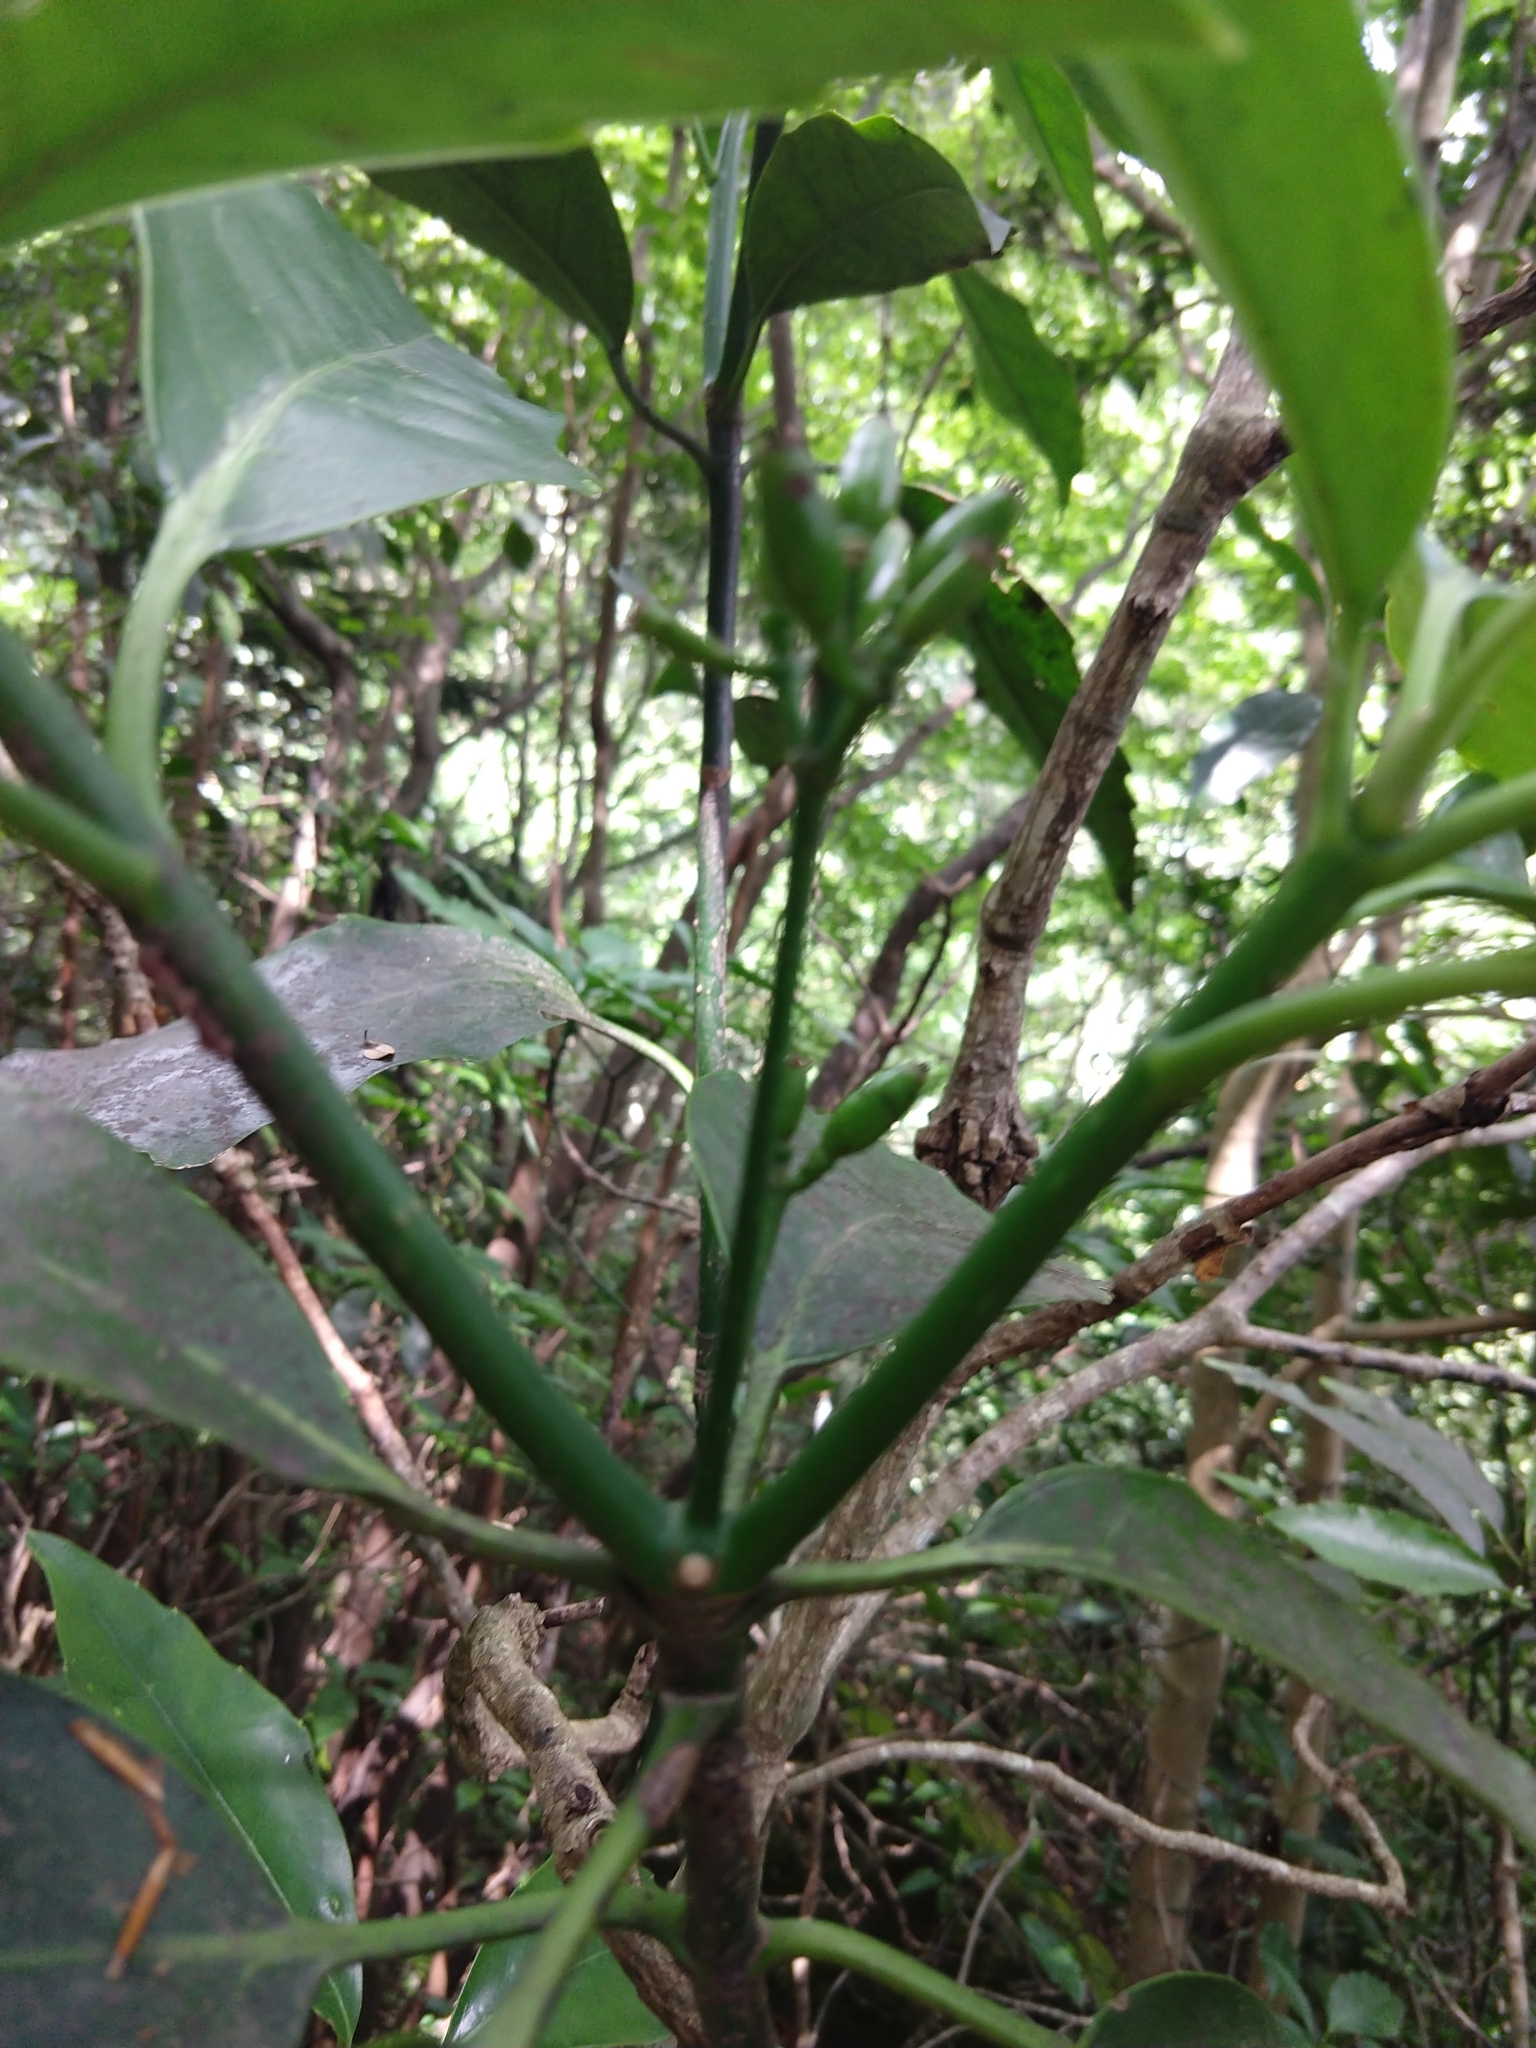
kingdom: Plantae
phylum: Tracheophyta
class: Magnoliopsida
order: Garryales
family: Garryaceae
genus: Aucuba
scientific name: Aucuba japonica
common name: Spotted-laurel
